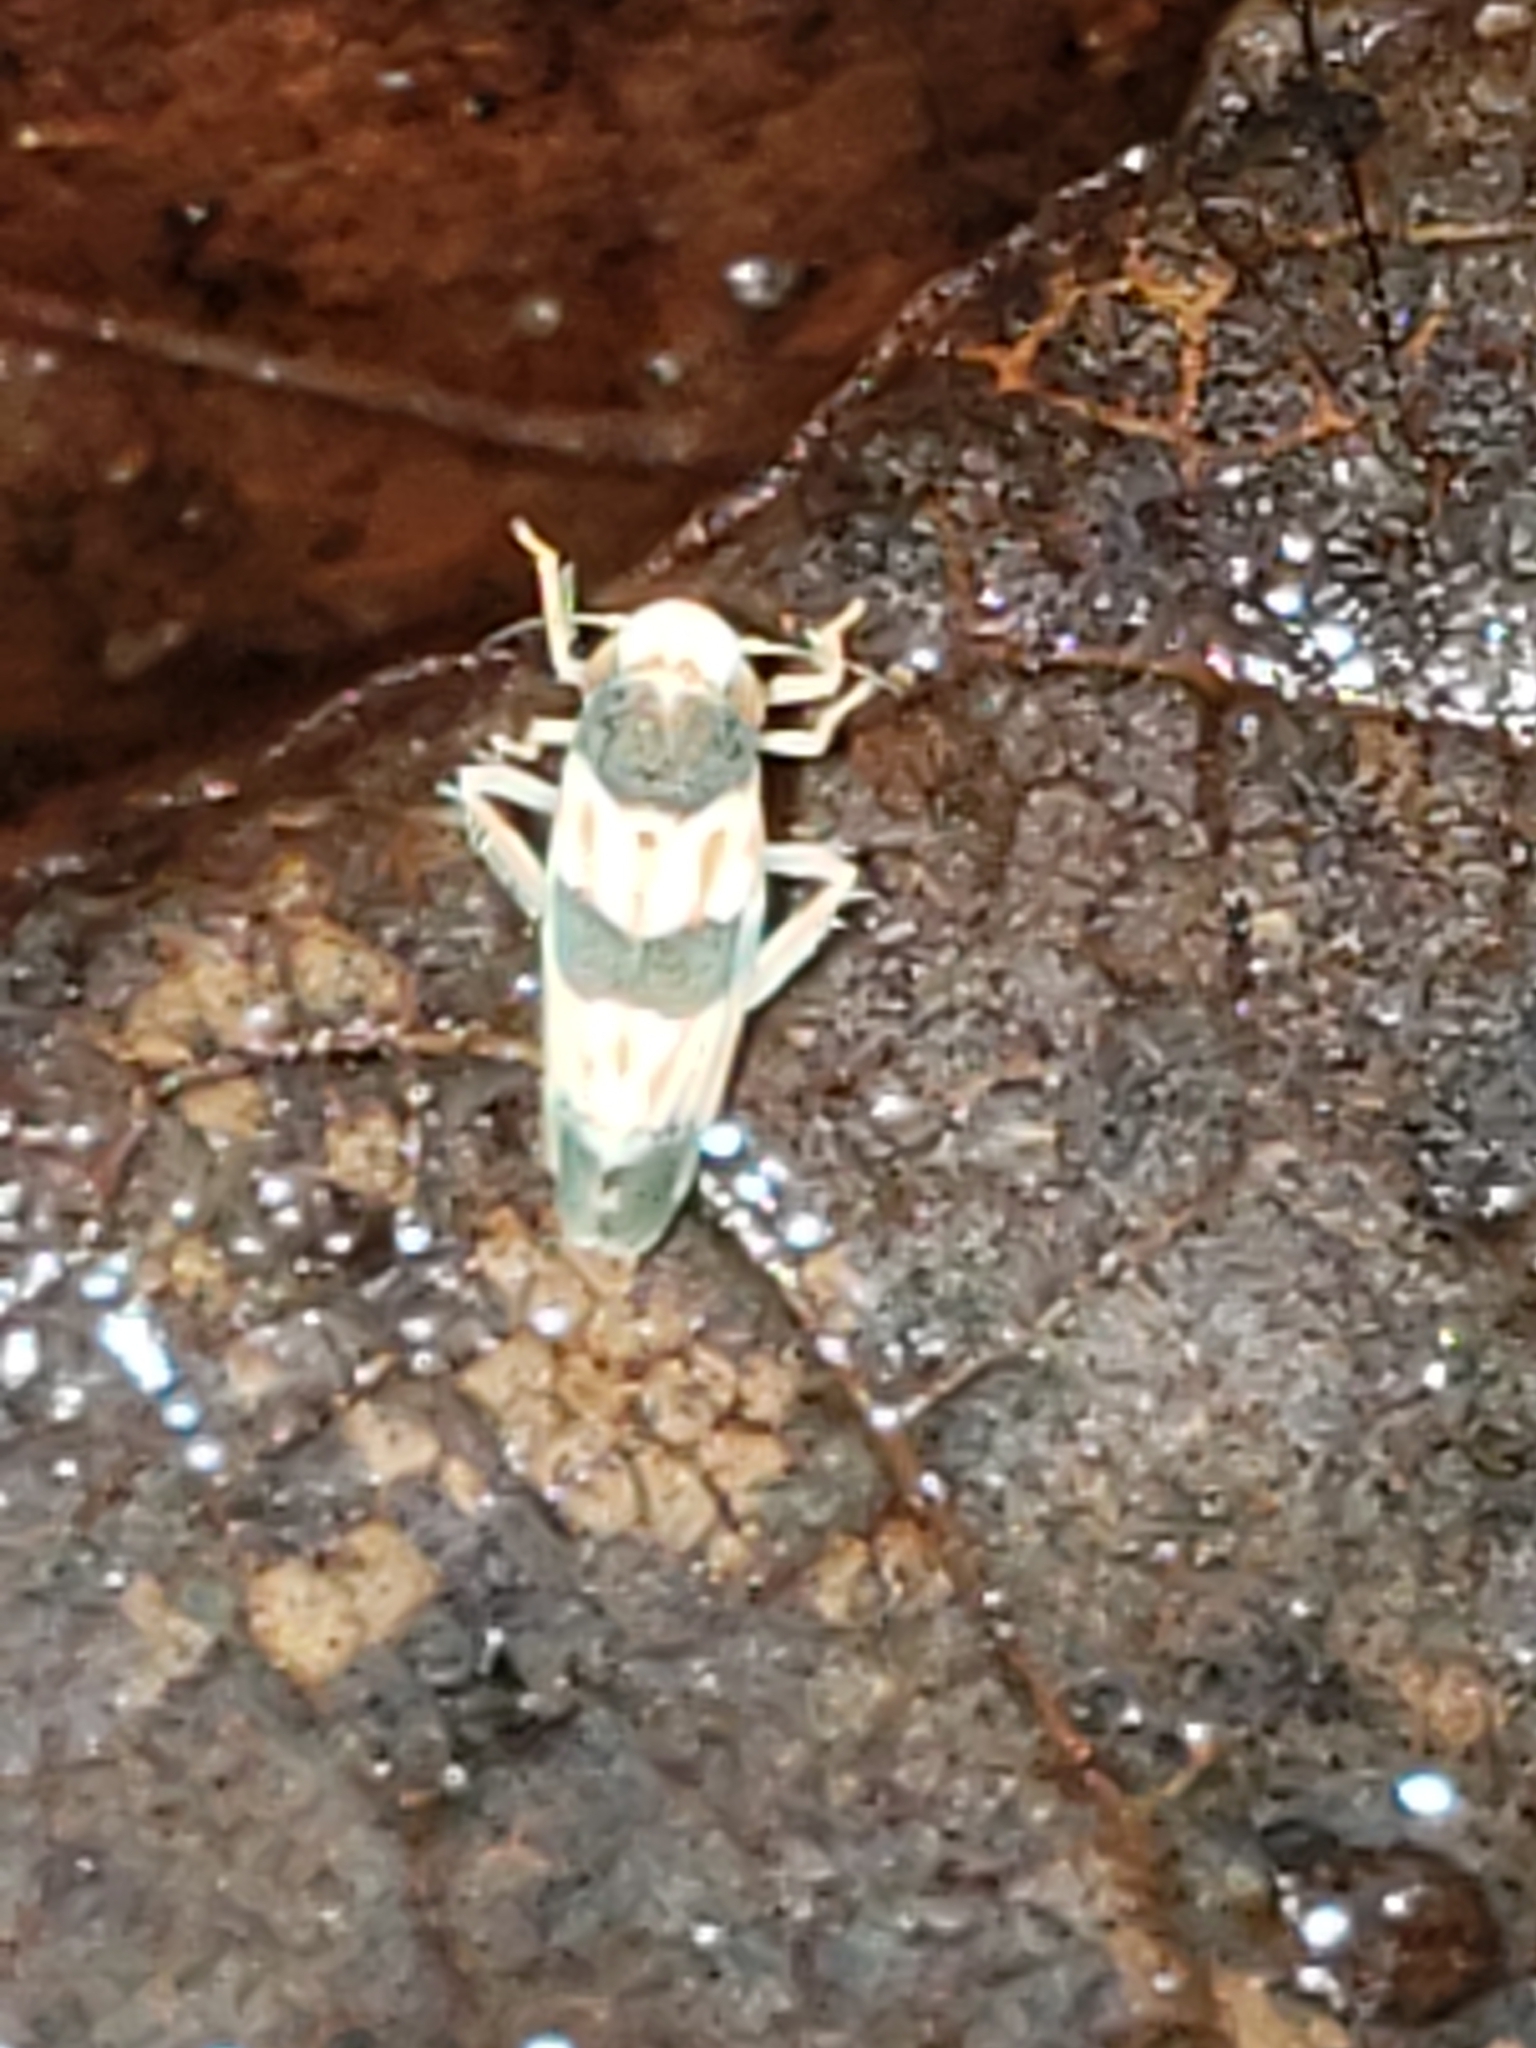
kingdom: Animalia
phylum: Arthropoda
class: Insecta
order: Hemiptera
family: Cicadellidae
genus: Erythroneura
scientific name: Erythroneura tricincta
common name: The threebanded grape leafhopper
